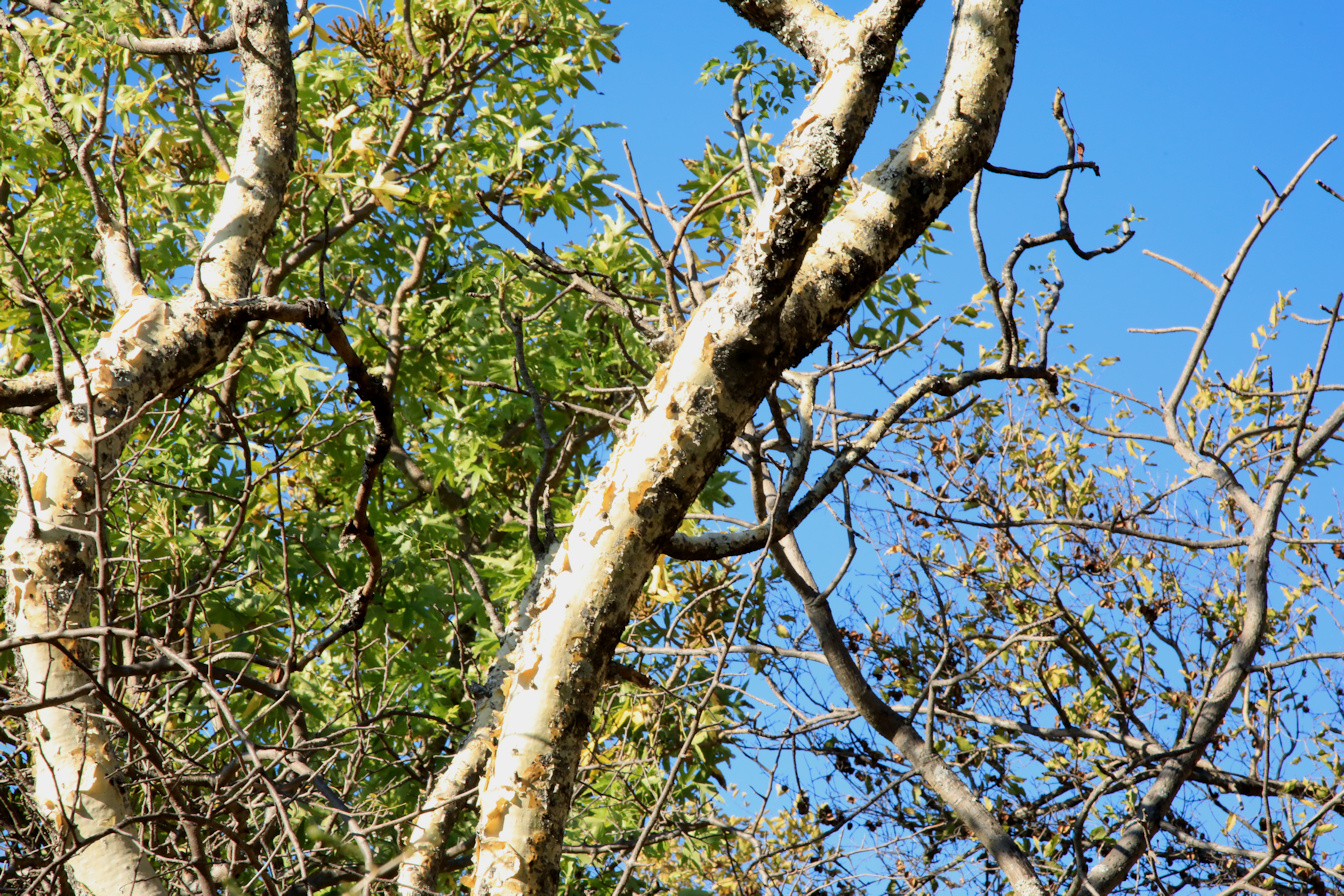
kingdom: Plantae
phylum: Tracheophyta
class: Magnoliopsida
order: Apiales
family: Apiaceae
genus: Steganotaenia
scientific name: Steganotaenia araliacea
